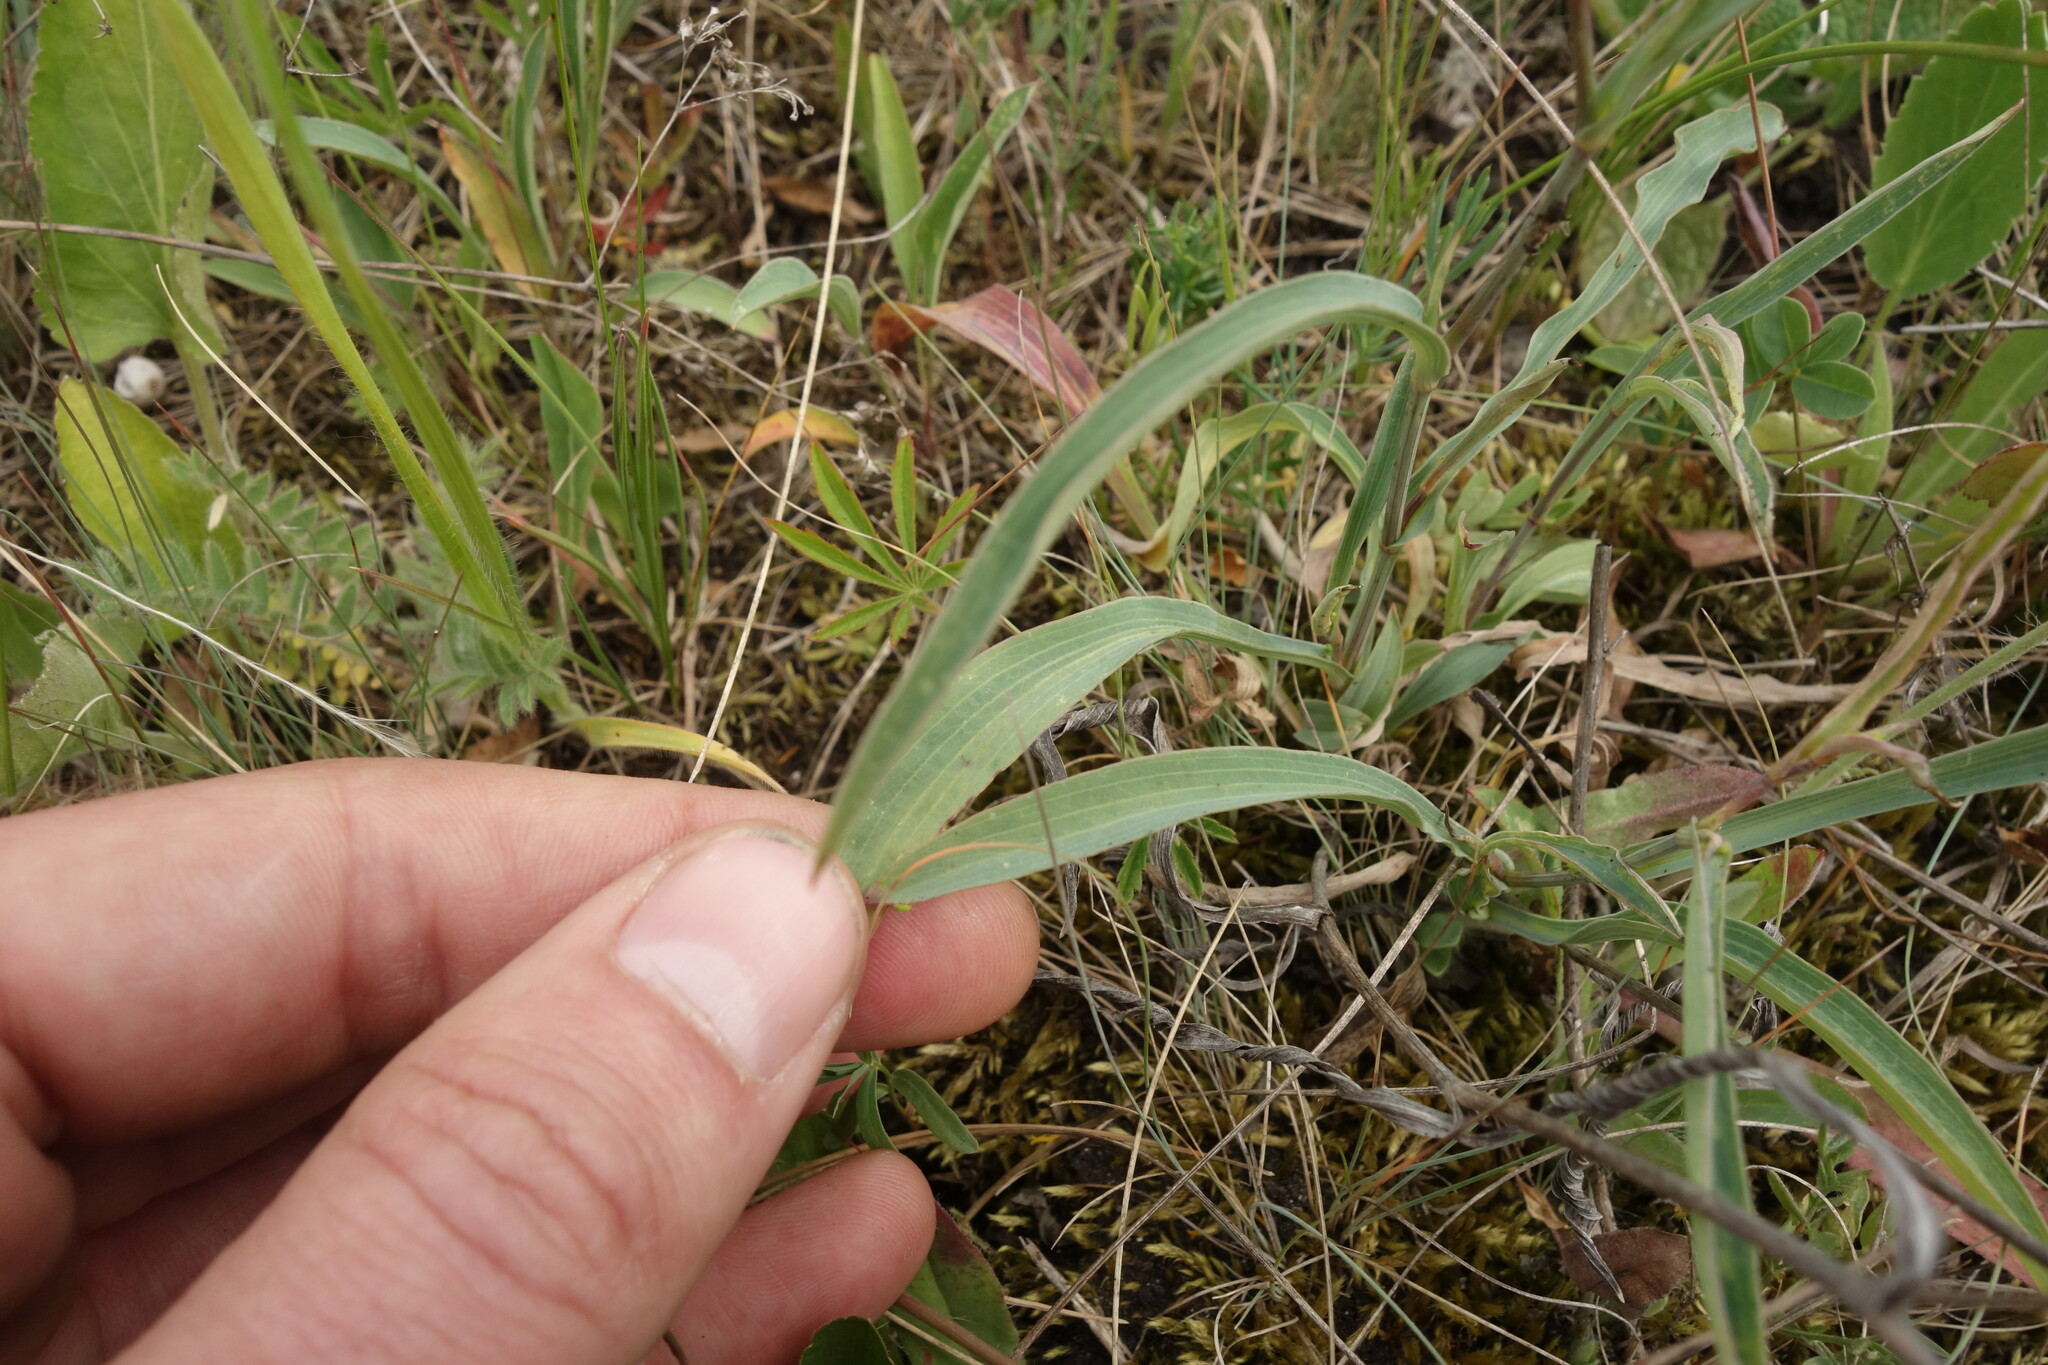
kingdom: Plantae
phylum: Tracheophyta
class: Magnoliopsida
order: Apiales
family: Apiaceae
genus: Bupleurum
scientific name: Bupleurum falcatum
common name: Sickle-leaved hare's-ear
